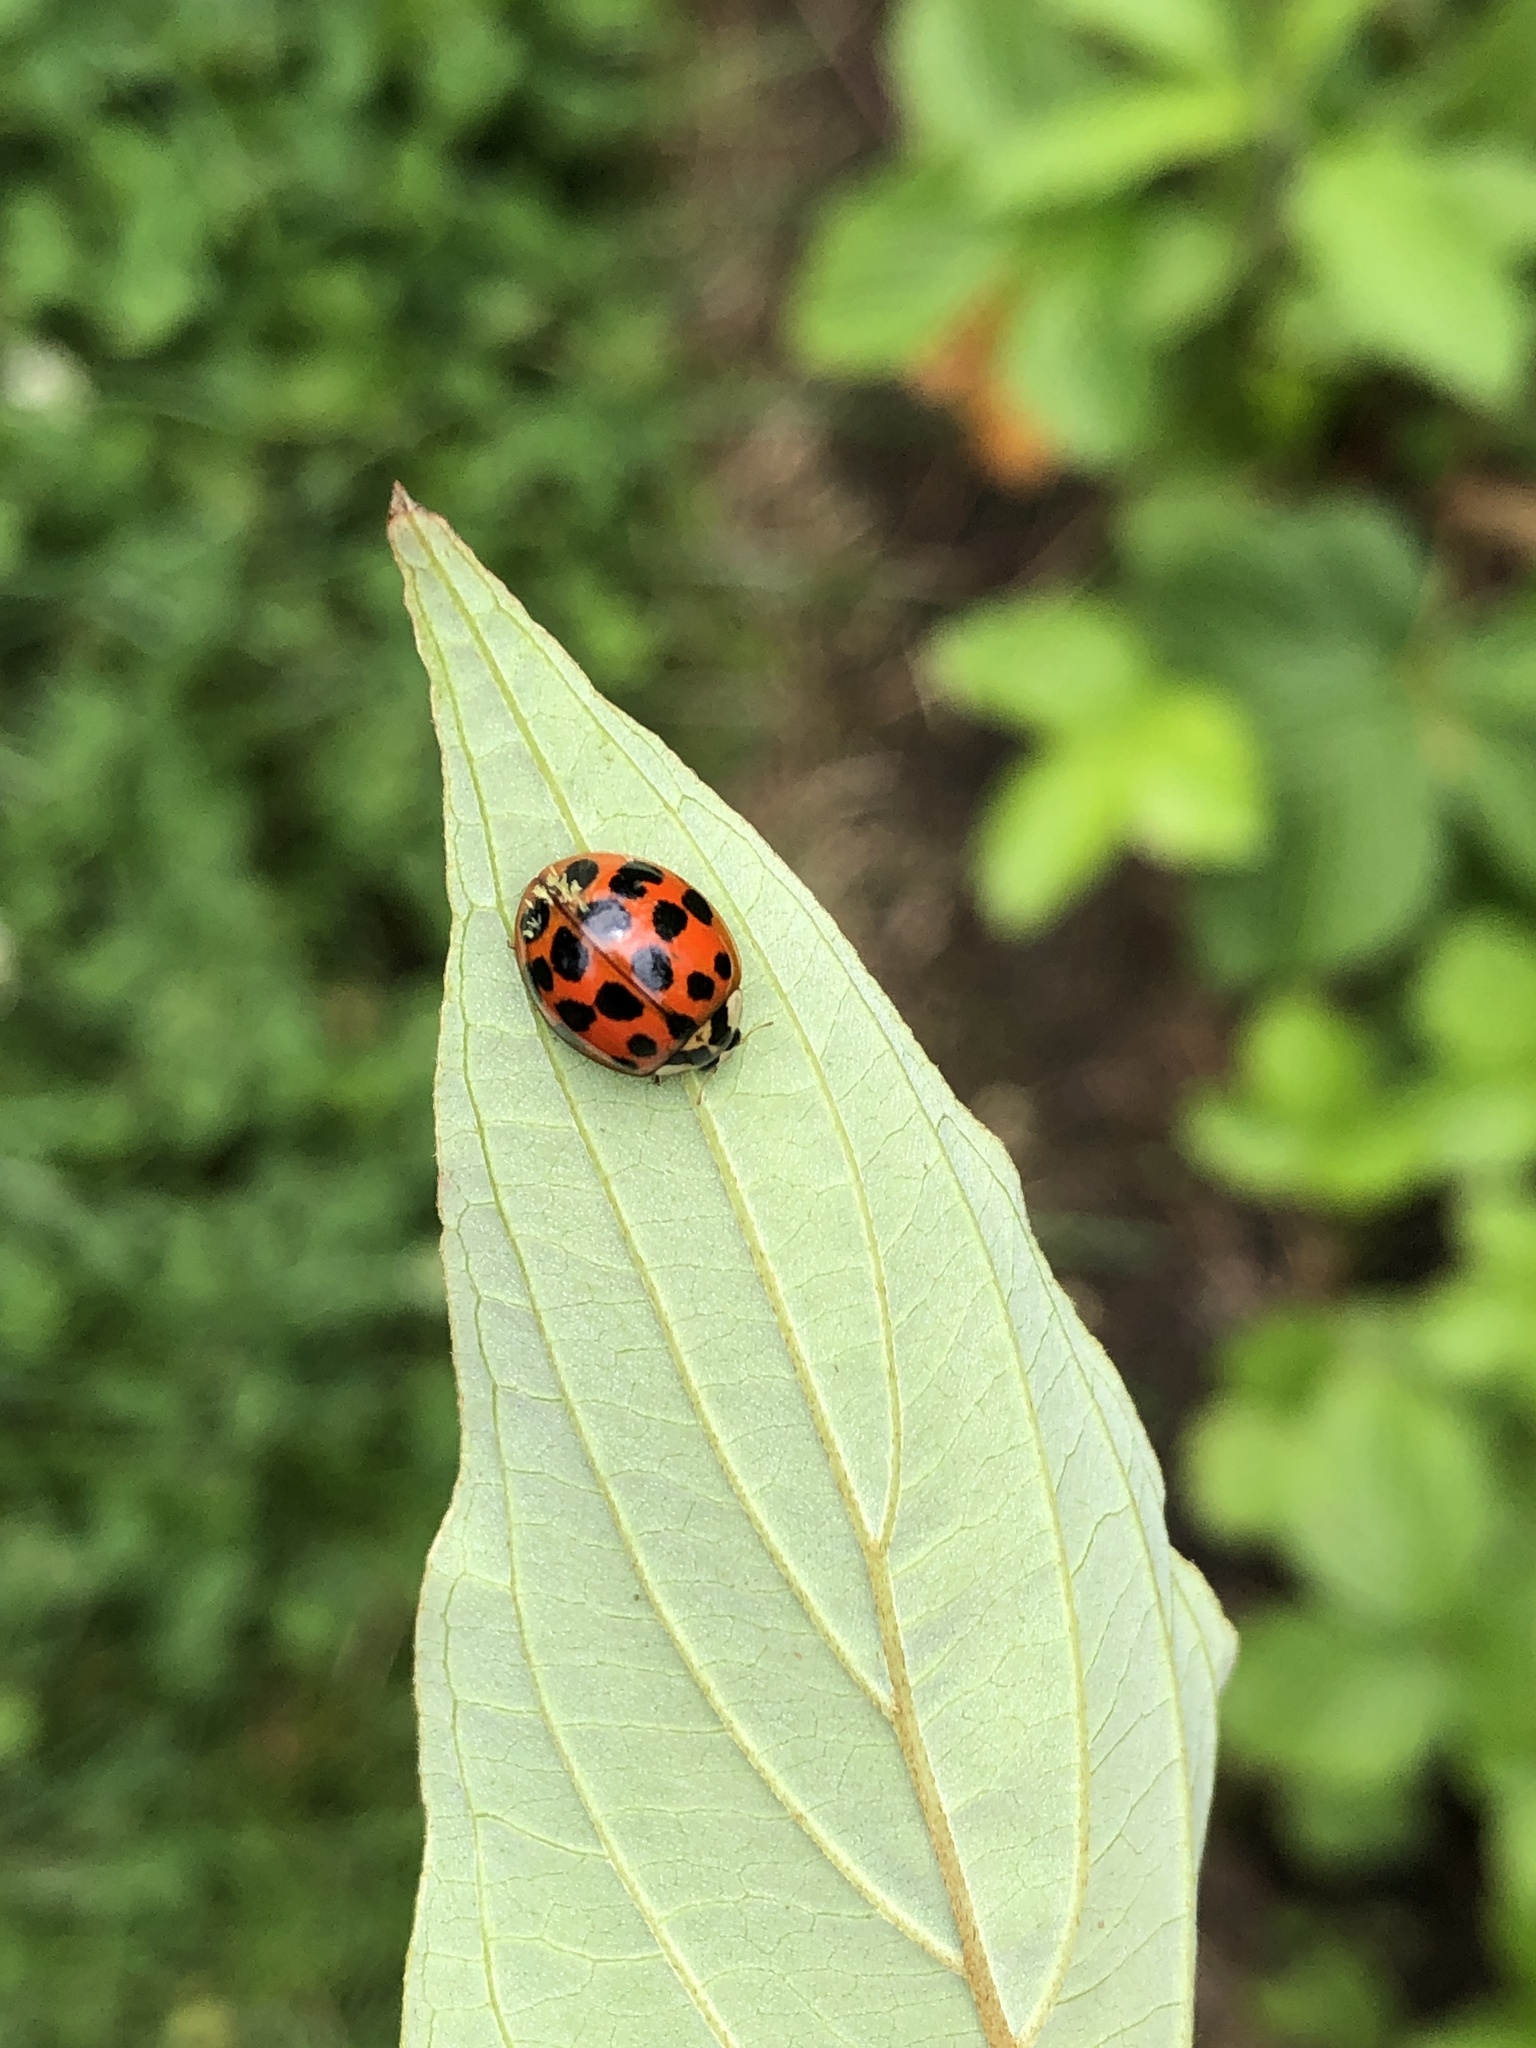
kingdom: Animalia
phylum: Arthropoda
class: Insecta
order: Coleoptera
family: Coccinellidae
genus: Harmonia
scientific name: Harmonia axyridis
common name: Harlequin ladybird
